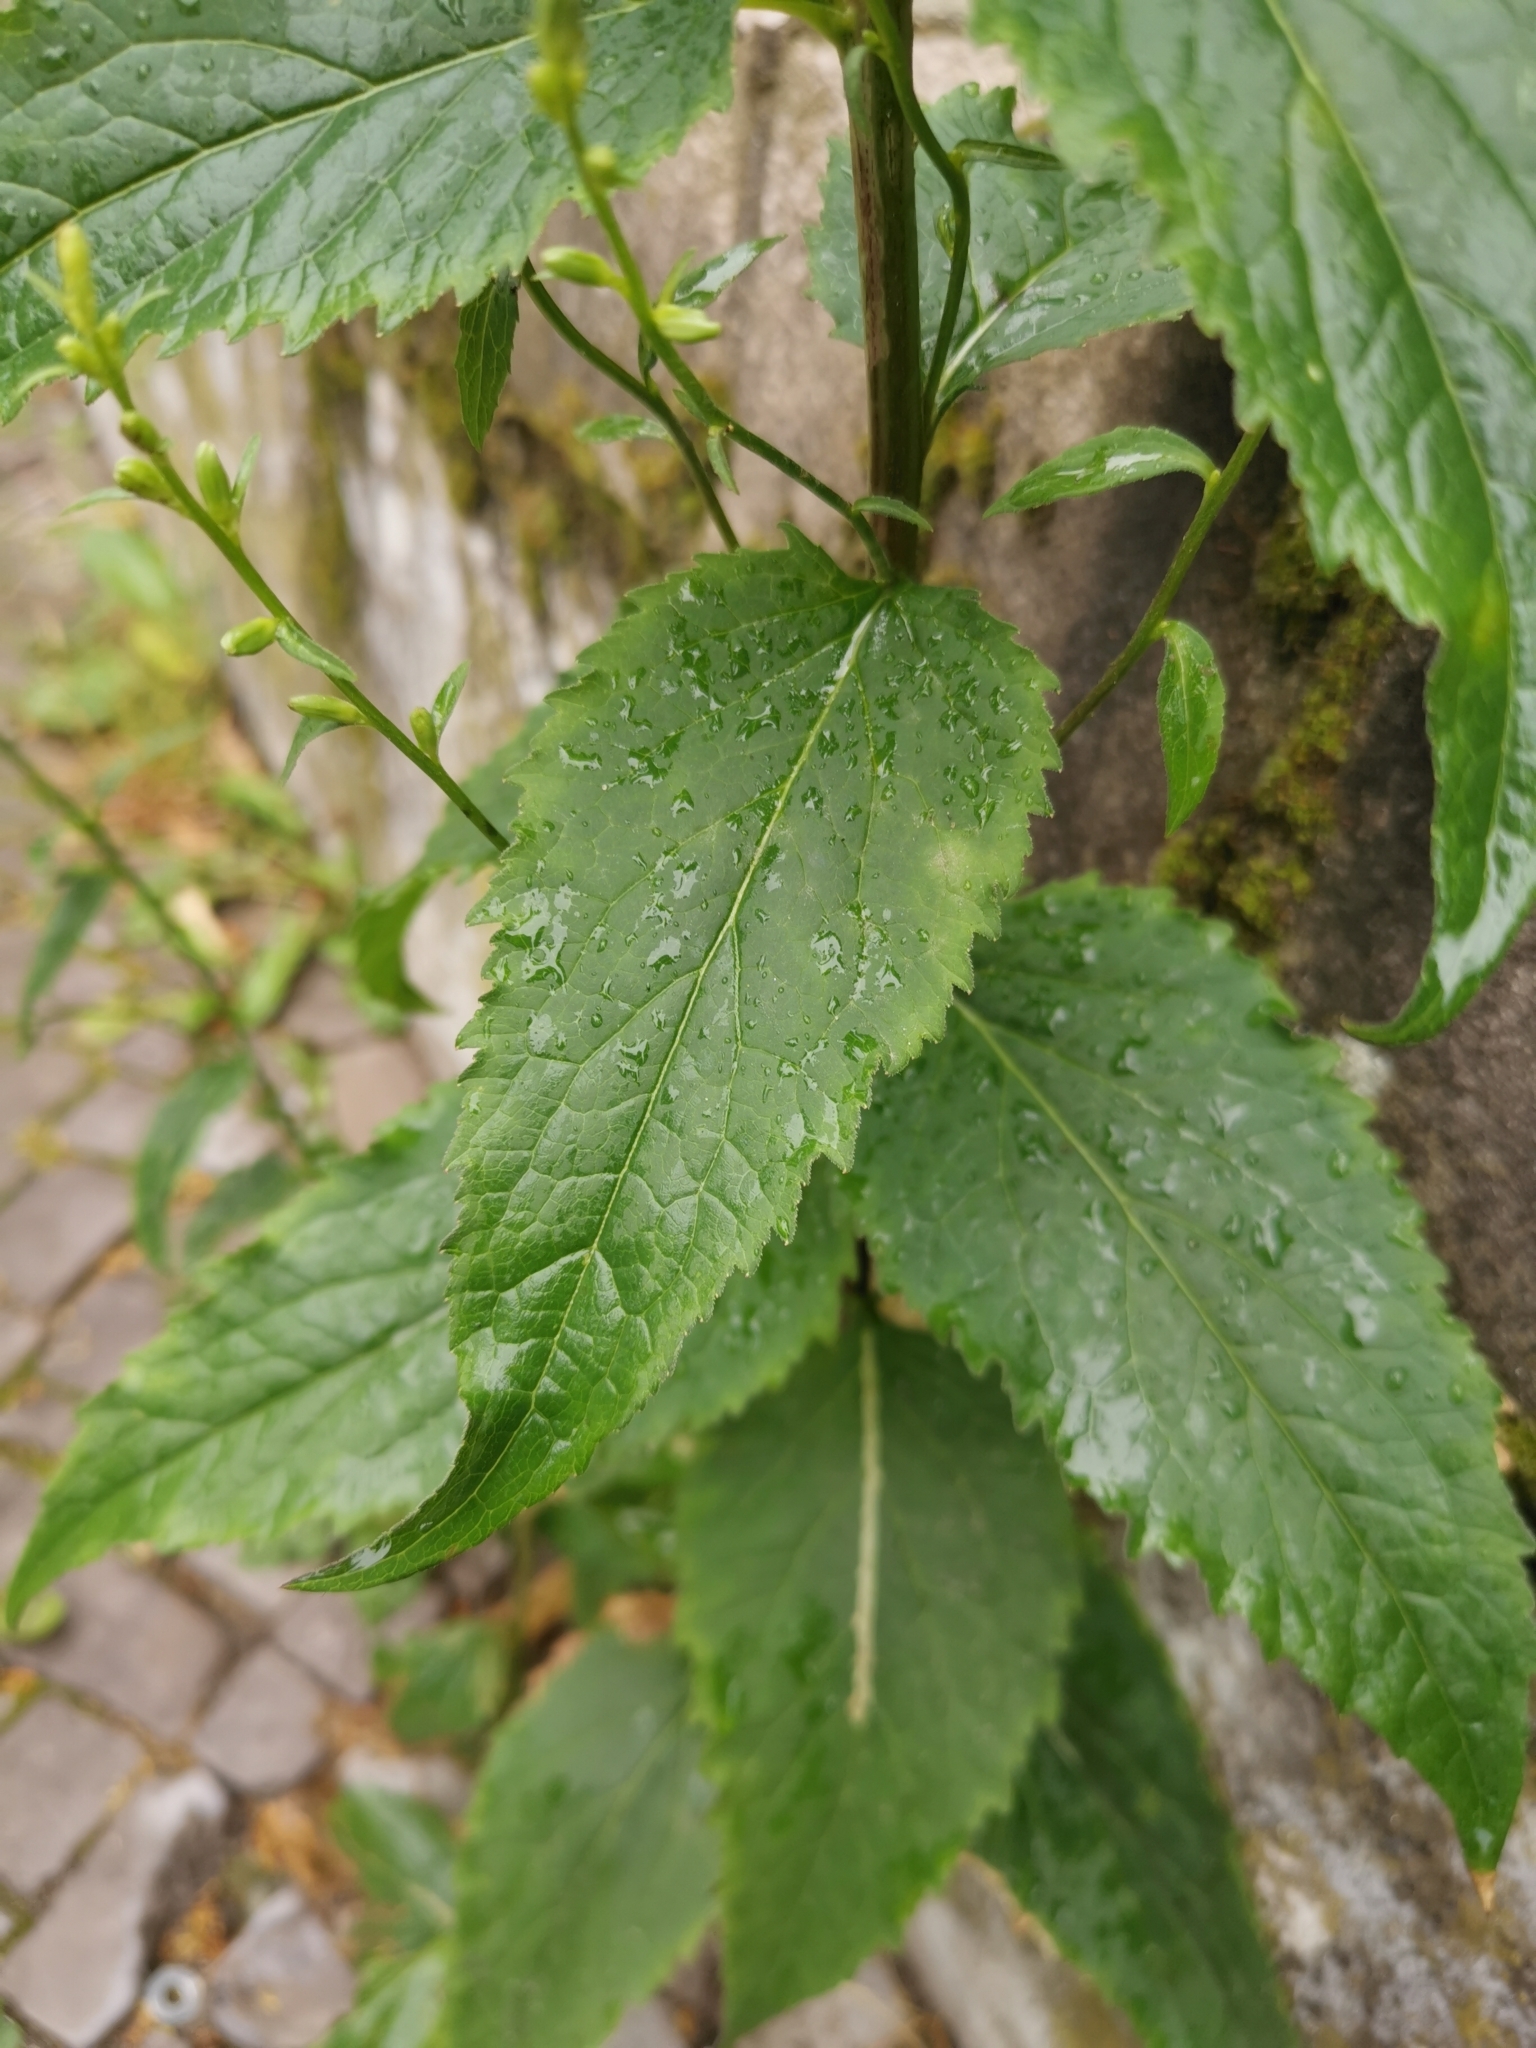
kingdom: Plantae
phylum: Tracheophyta
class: Magnoliopsida
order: Asterales
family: Campanulaceae
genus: Campanula
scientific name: Campanula rapunculoides
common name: Creeping bellflower
